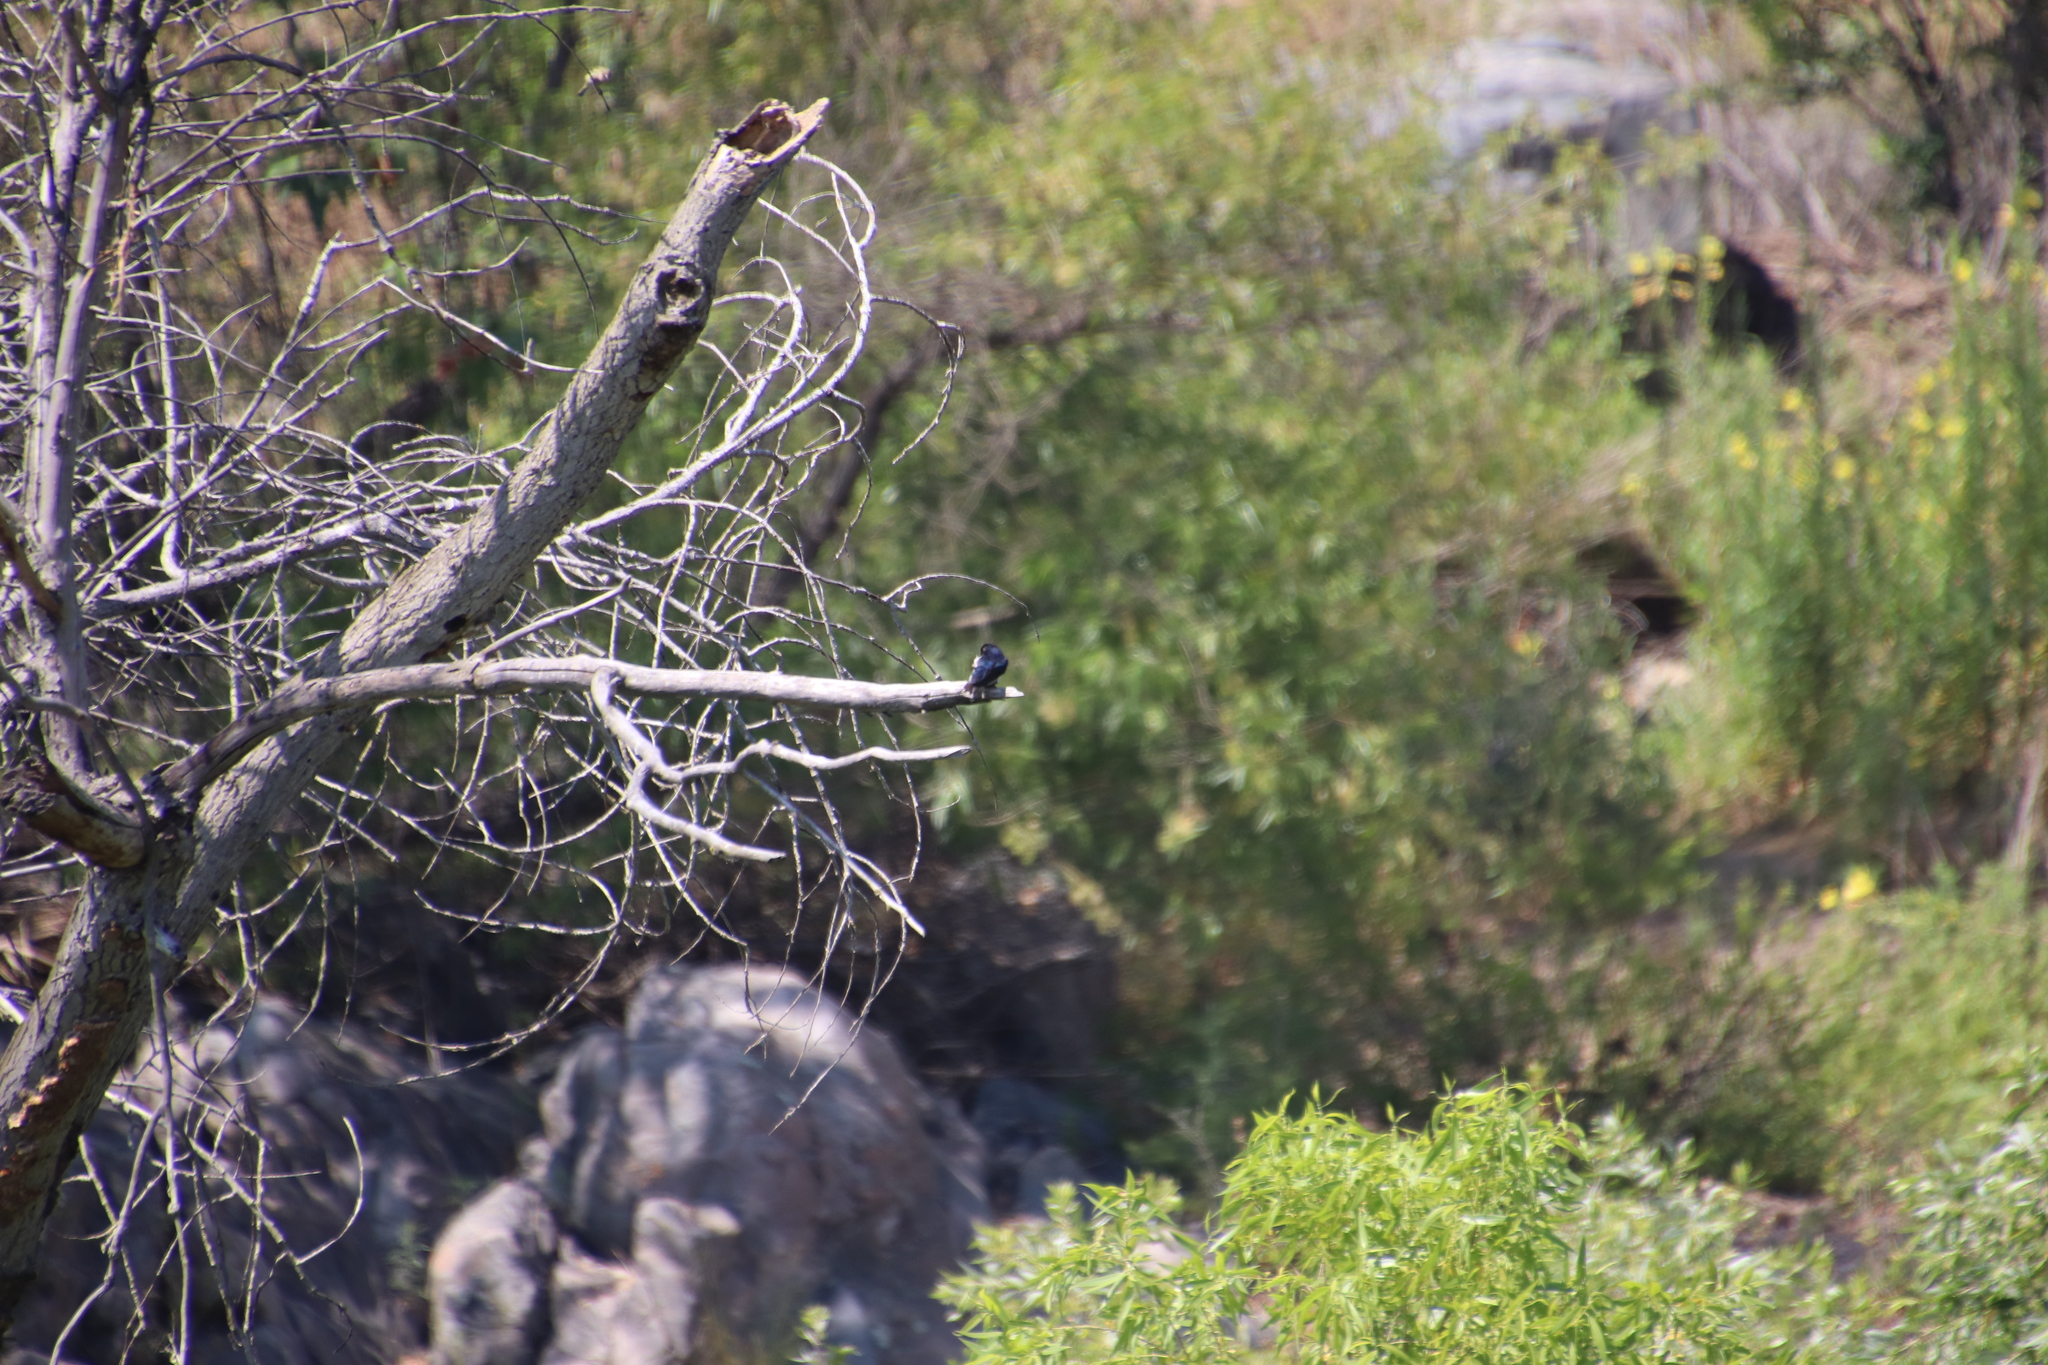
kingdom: Animalia
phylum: Chordata
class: Aves
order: Passeriformes
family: Hirundinidae
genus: Tachycineta
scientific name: Tachycineta bicolor
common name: Tree swallow
